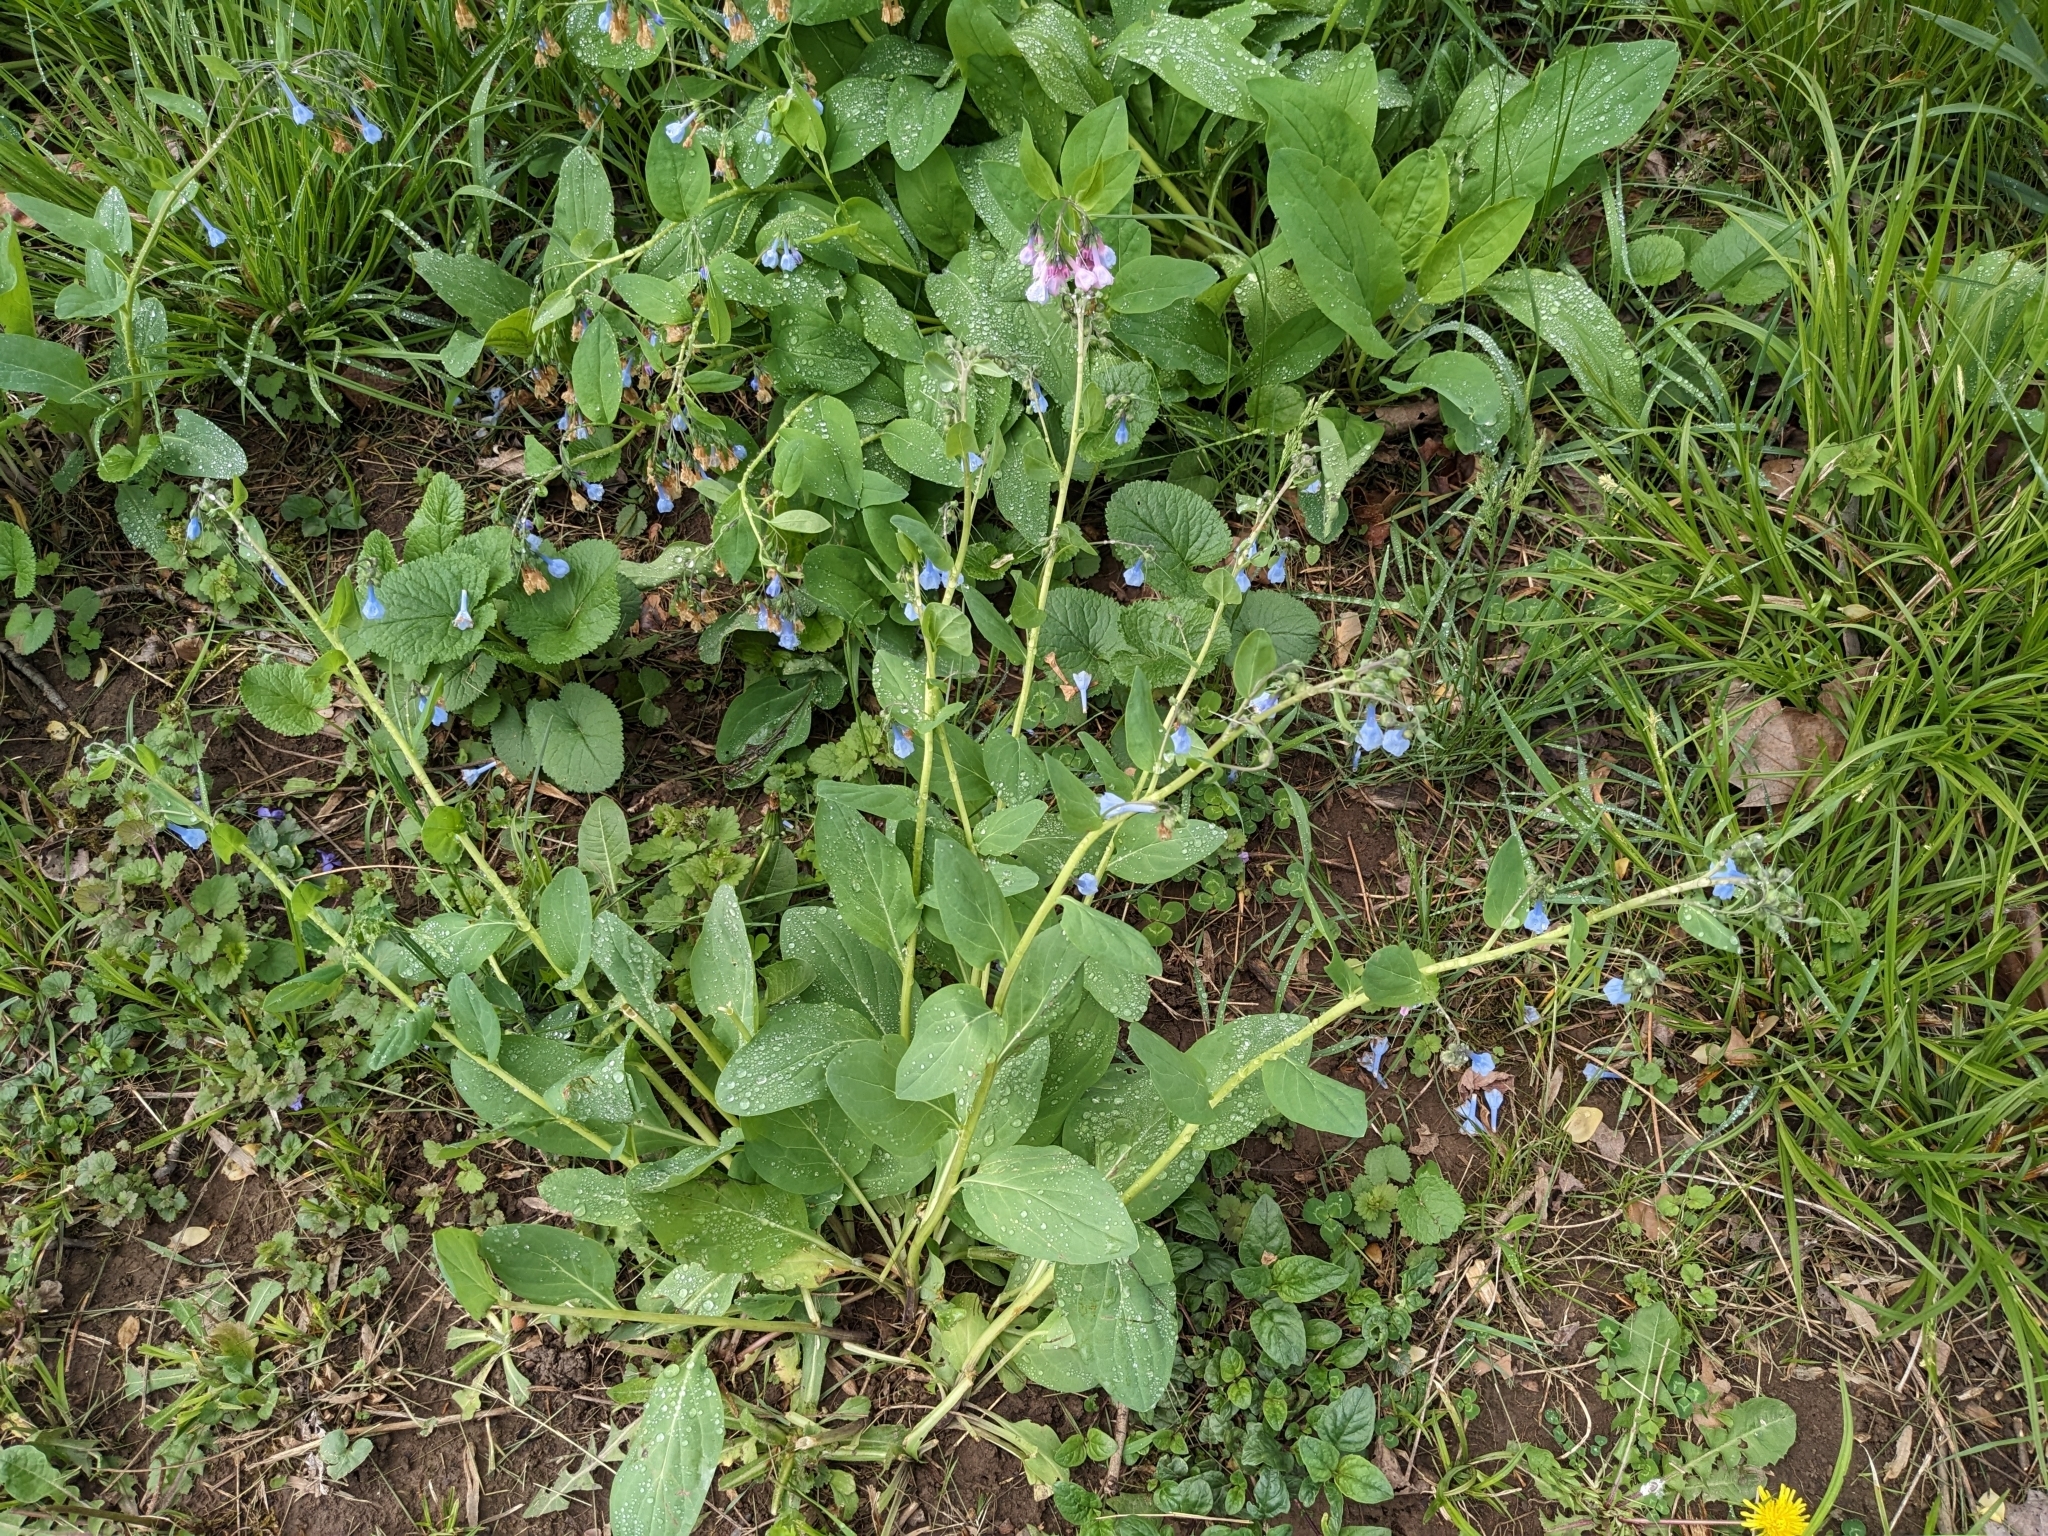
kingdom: Plantae
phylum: Tracheophyta
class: Magnoliopsida
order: Boraginales
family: Boraginaceae
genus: Mertensia
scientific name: Mertensia virginica
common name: Virginia bluebells
